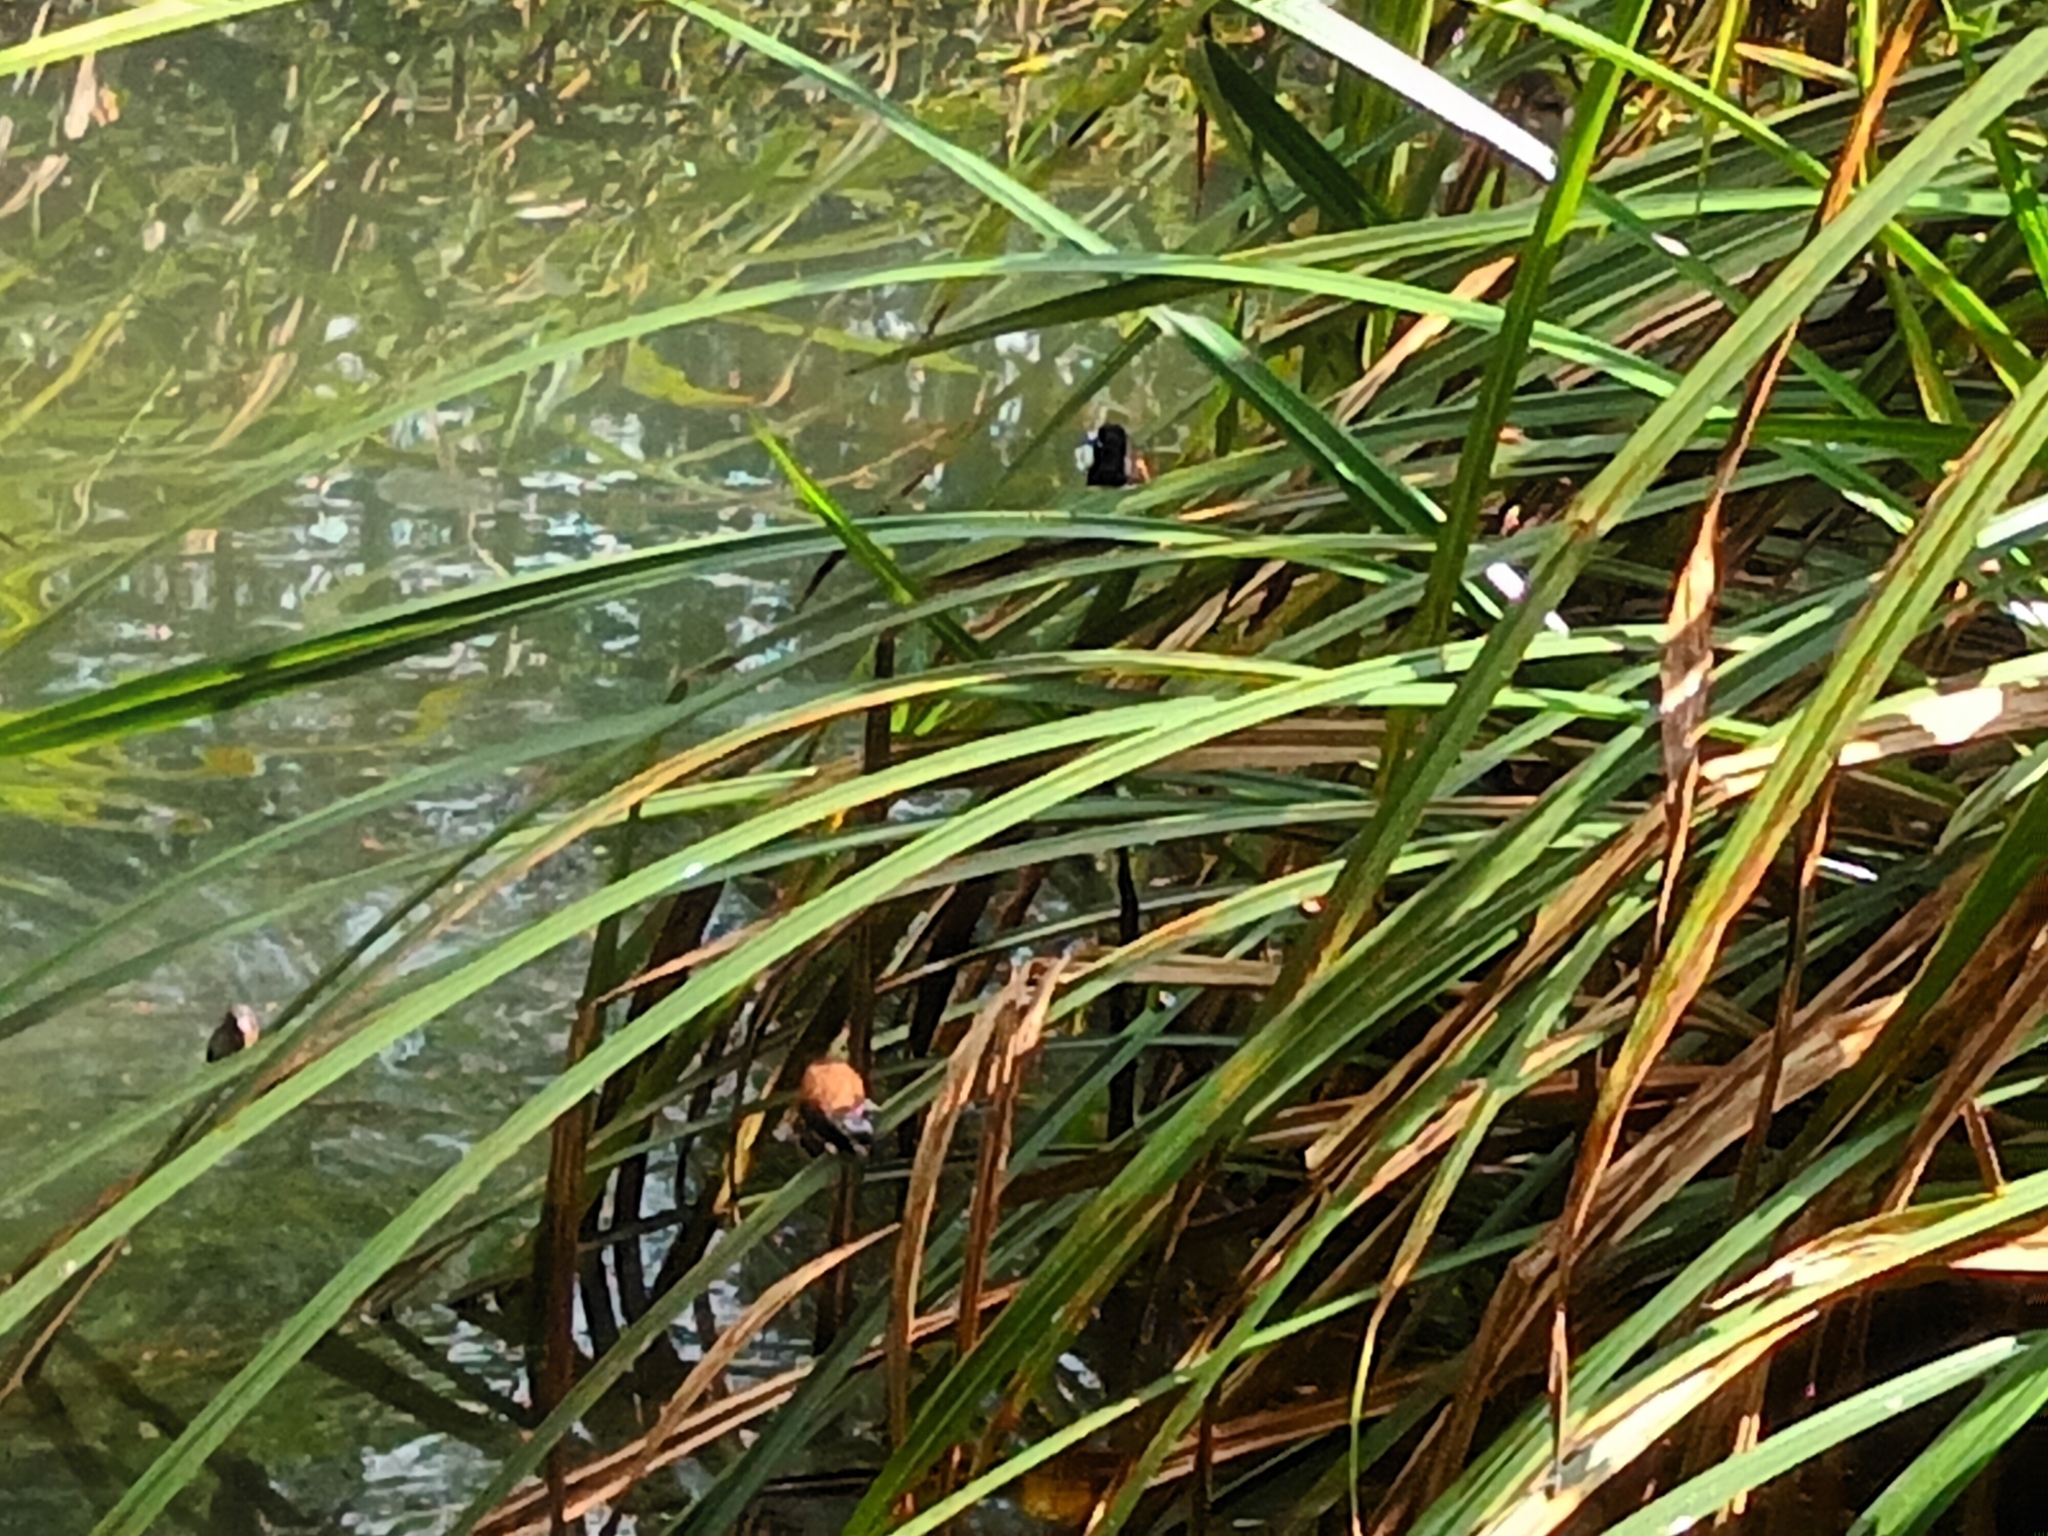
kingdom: Animalia
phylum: Chordata
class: Aves
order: Passeriformes
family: Estrildidae
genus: Lonchura
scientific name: Lonchura nigriceps
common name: Red-backed mannikin
